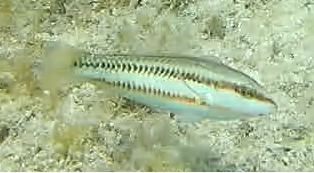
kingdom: Animalia
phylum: Chordata
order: Perciformes
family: Labridae
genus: Halichoeres
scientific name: Halichoeres bivittatus
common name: Slippery dick
